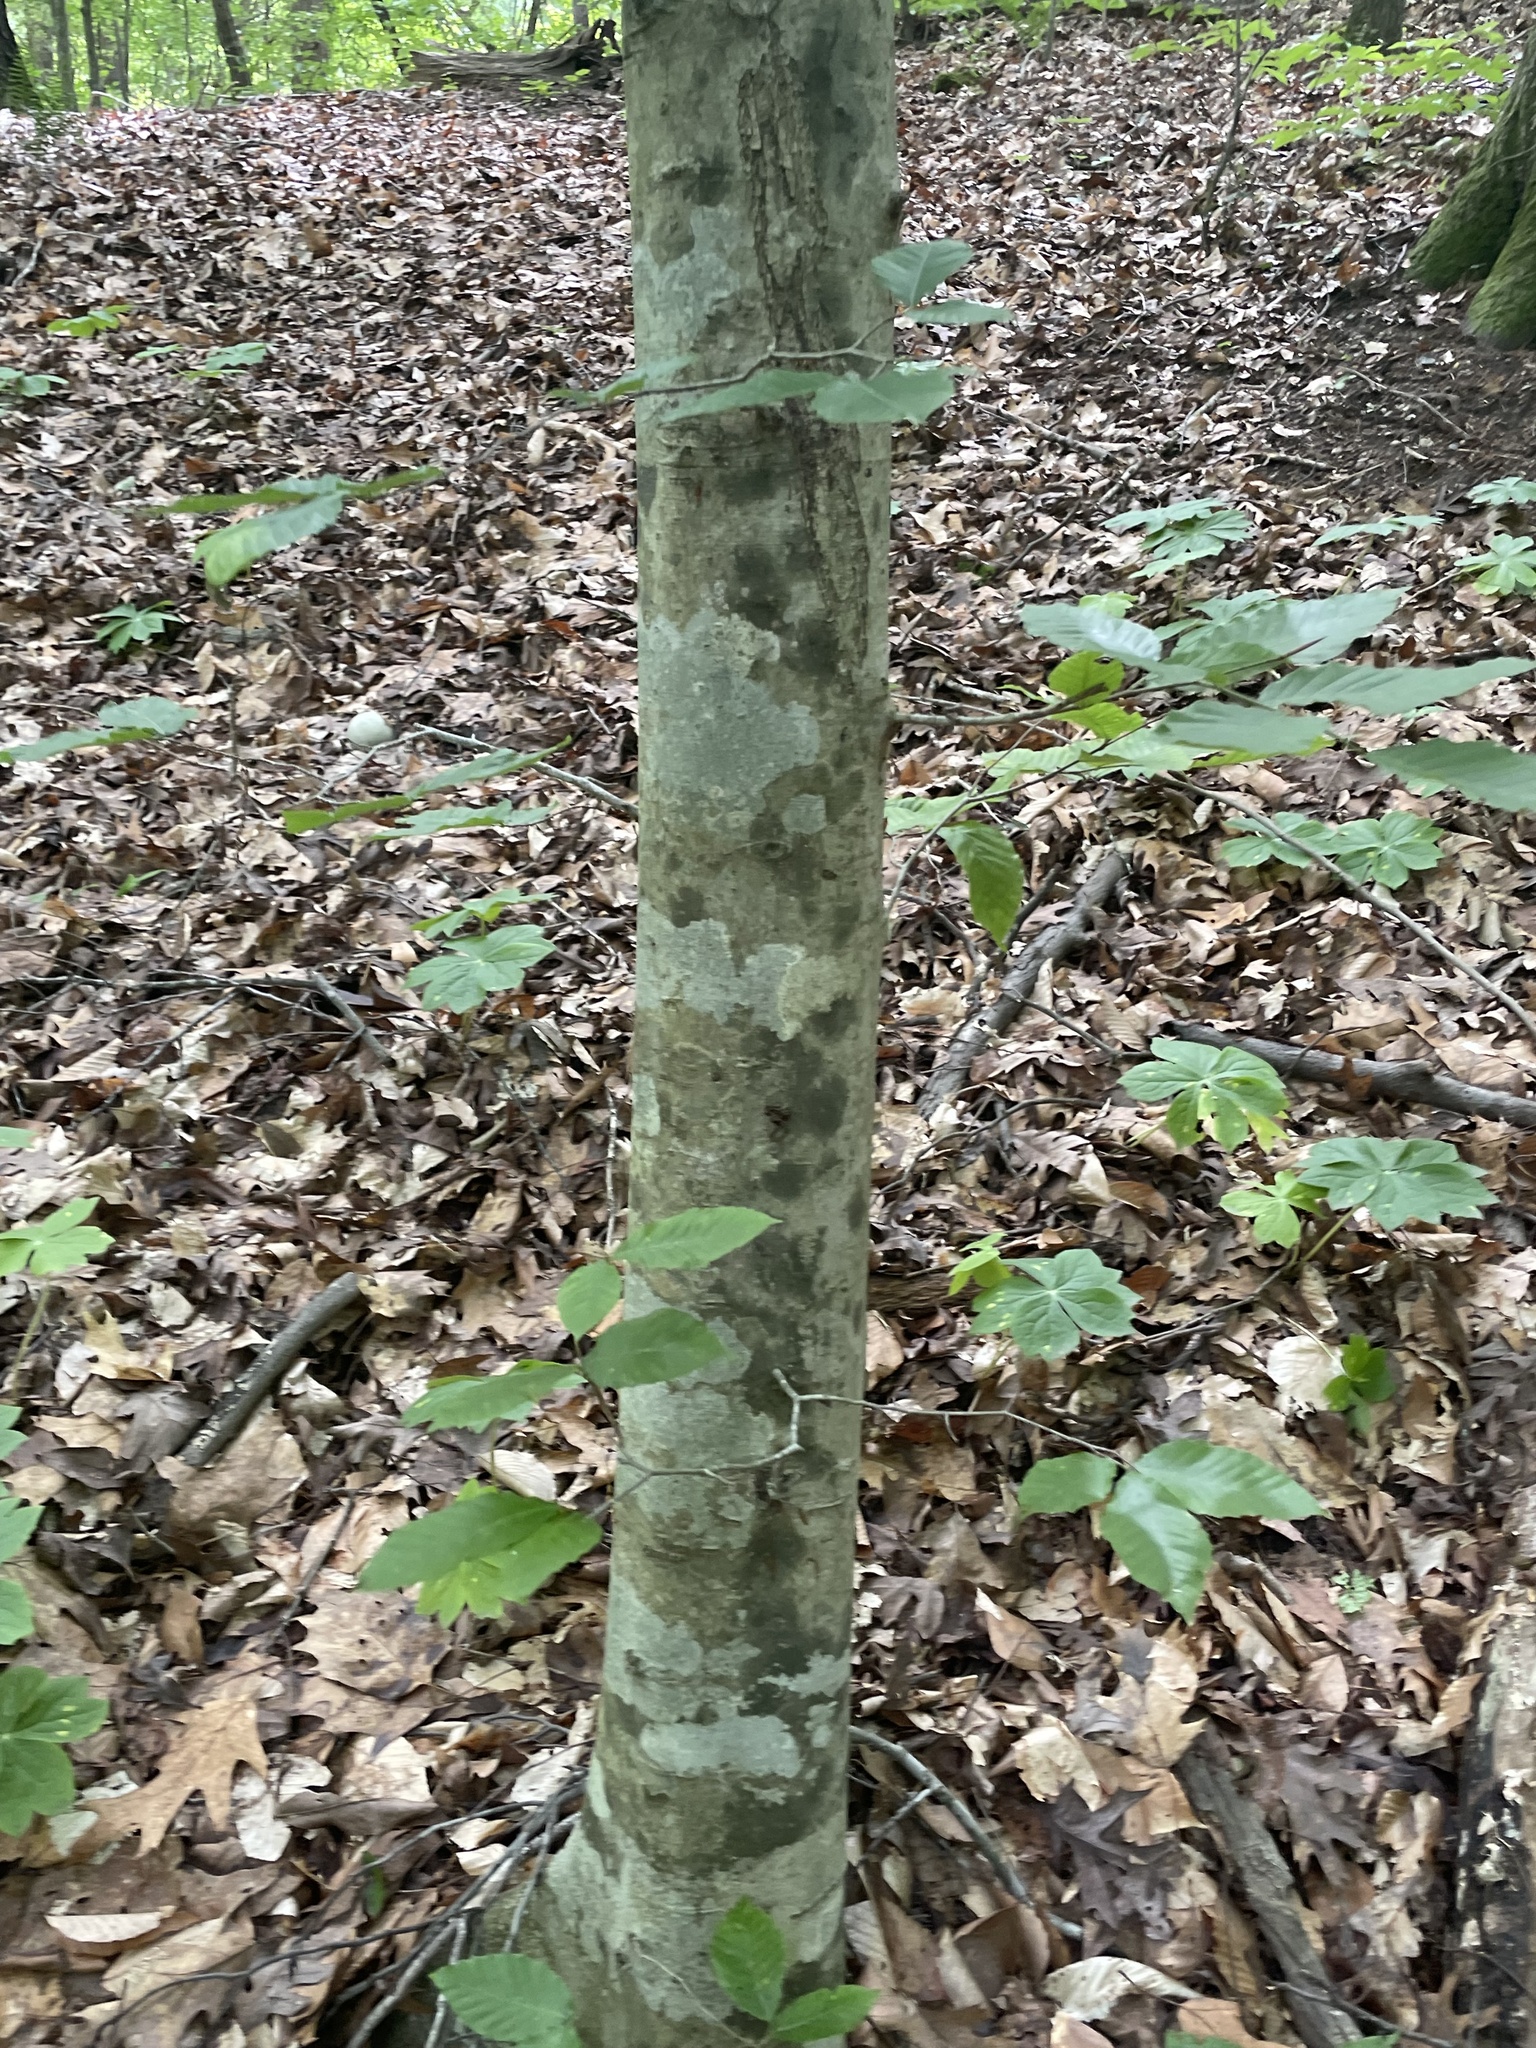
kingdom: Plantae
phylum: Tracheophyta
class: Magnoliopsida
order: Fagales
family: Fagaceae
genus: Fagus
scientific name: Fagus grandifolia
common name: American beech
